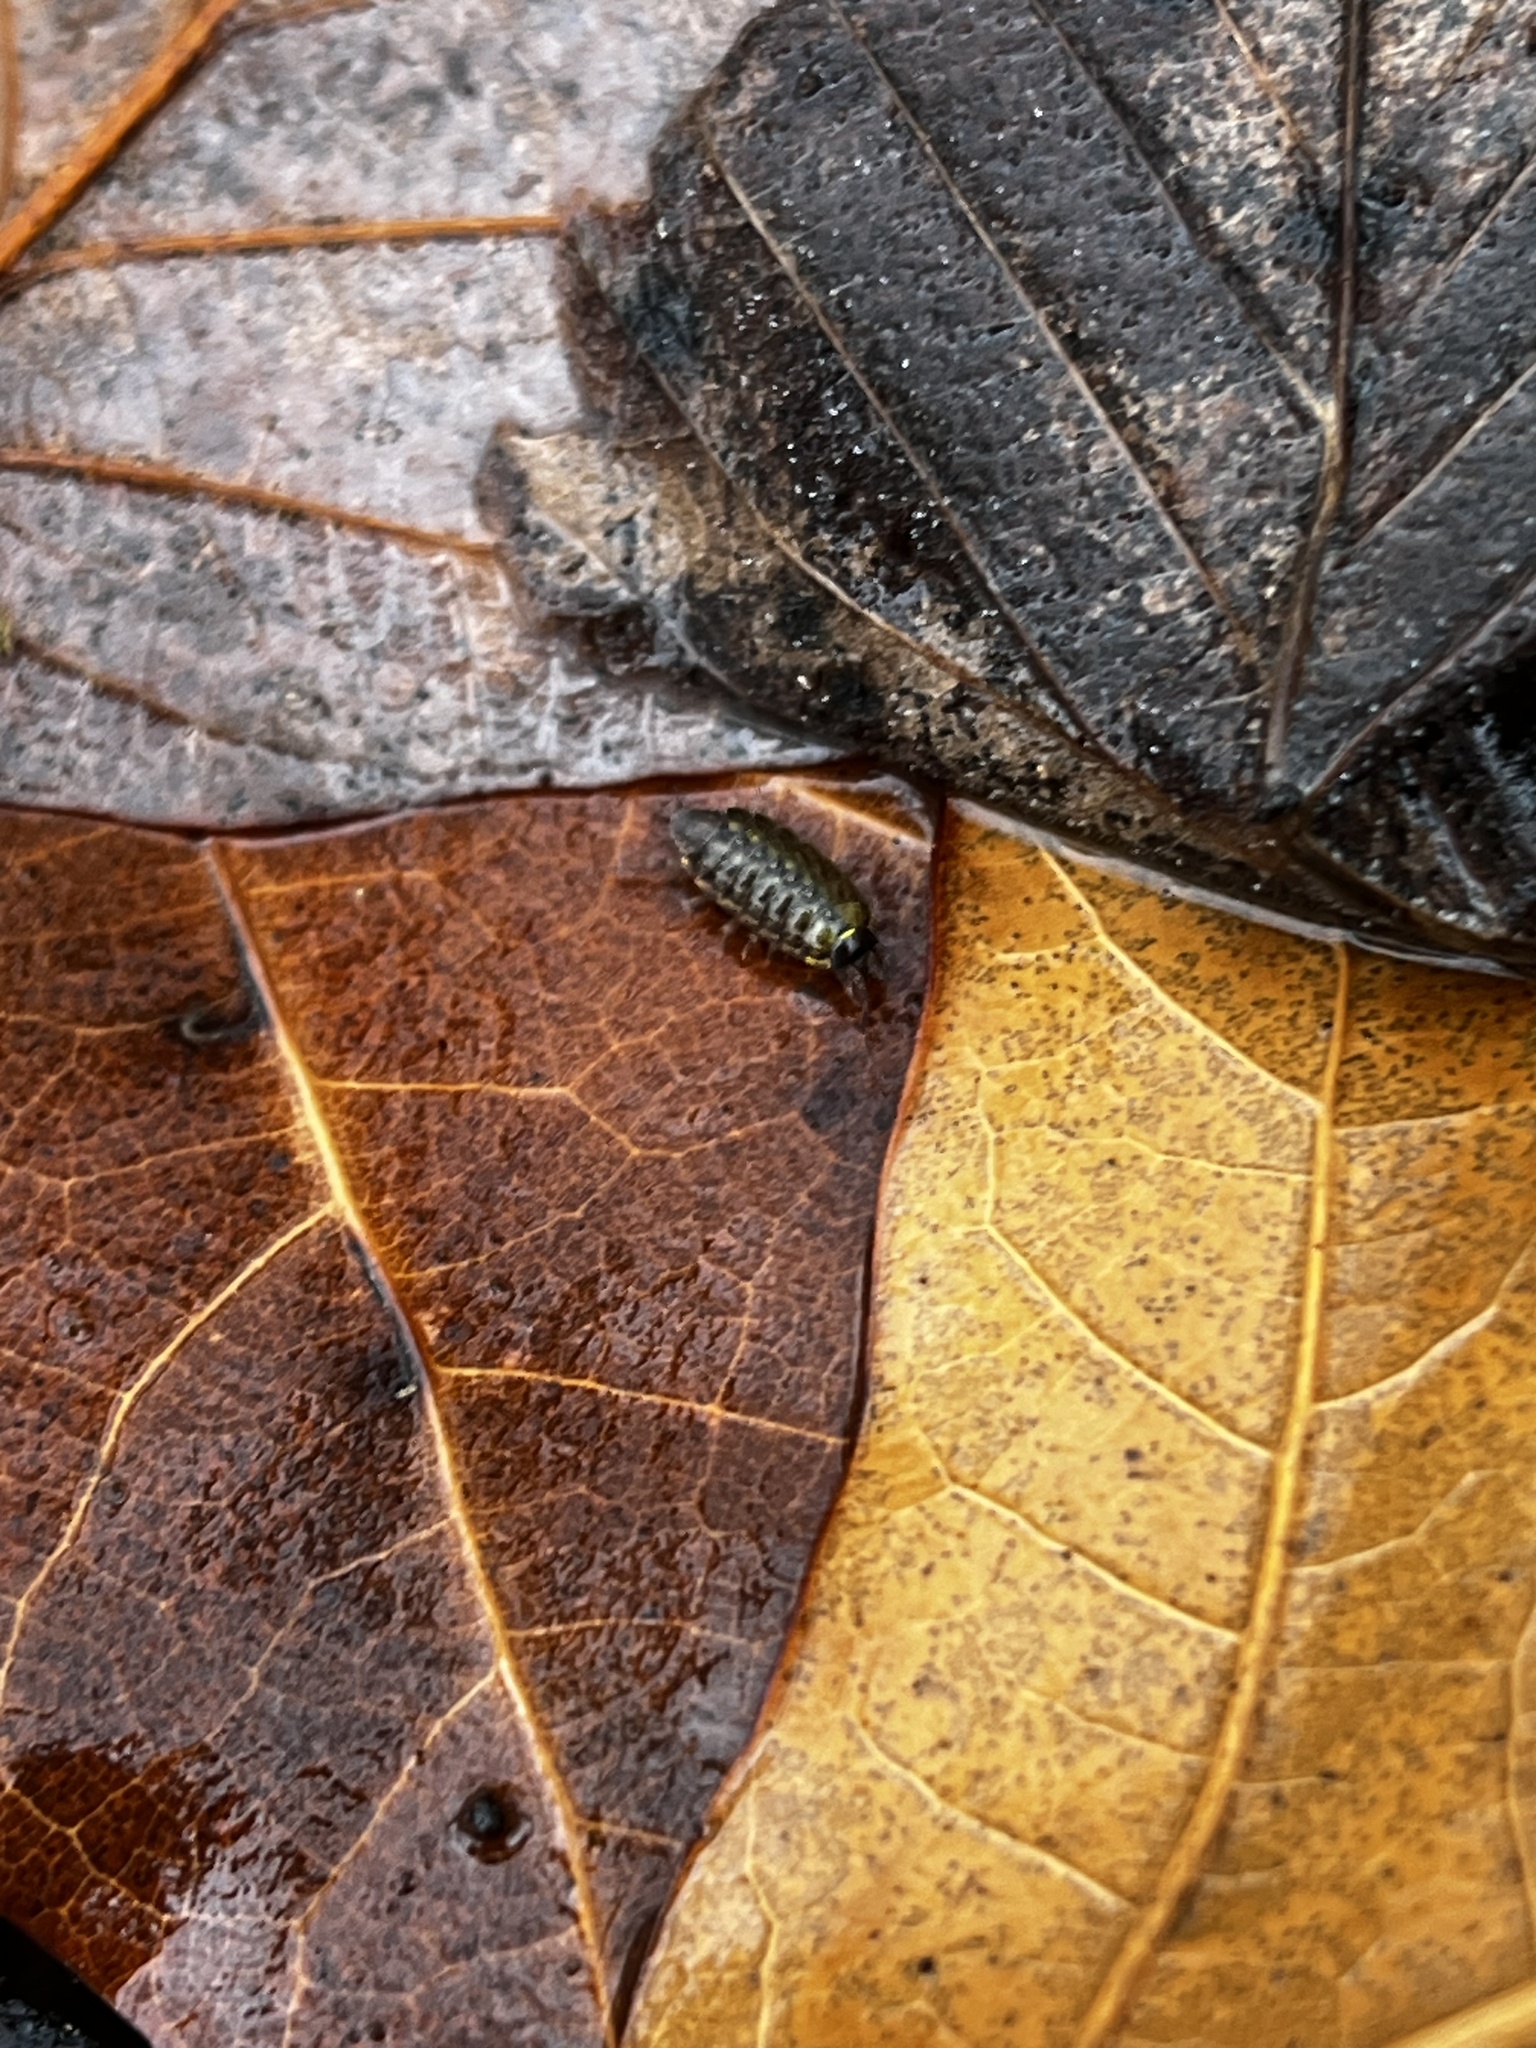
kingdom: Animalia
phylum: Arthropoda
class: Malacostraca
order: Isopoda
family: Philosciidae
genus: Philoscia
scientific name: Philoscia muscorum
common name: Common striped woodlouse
